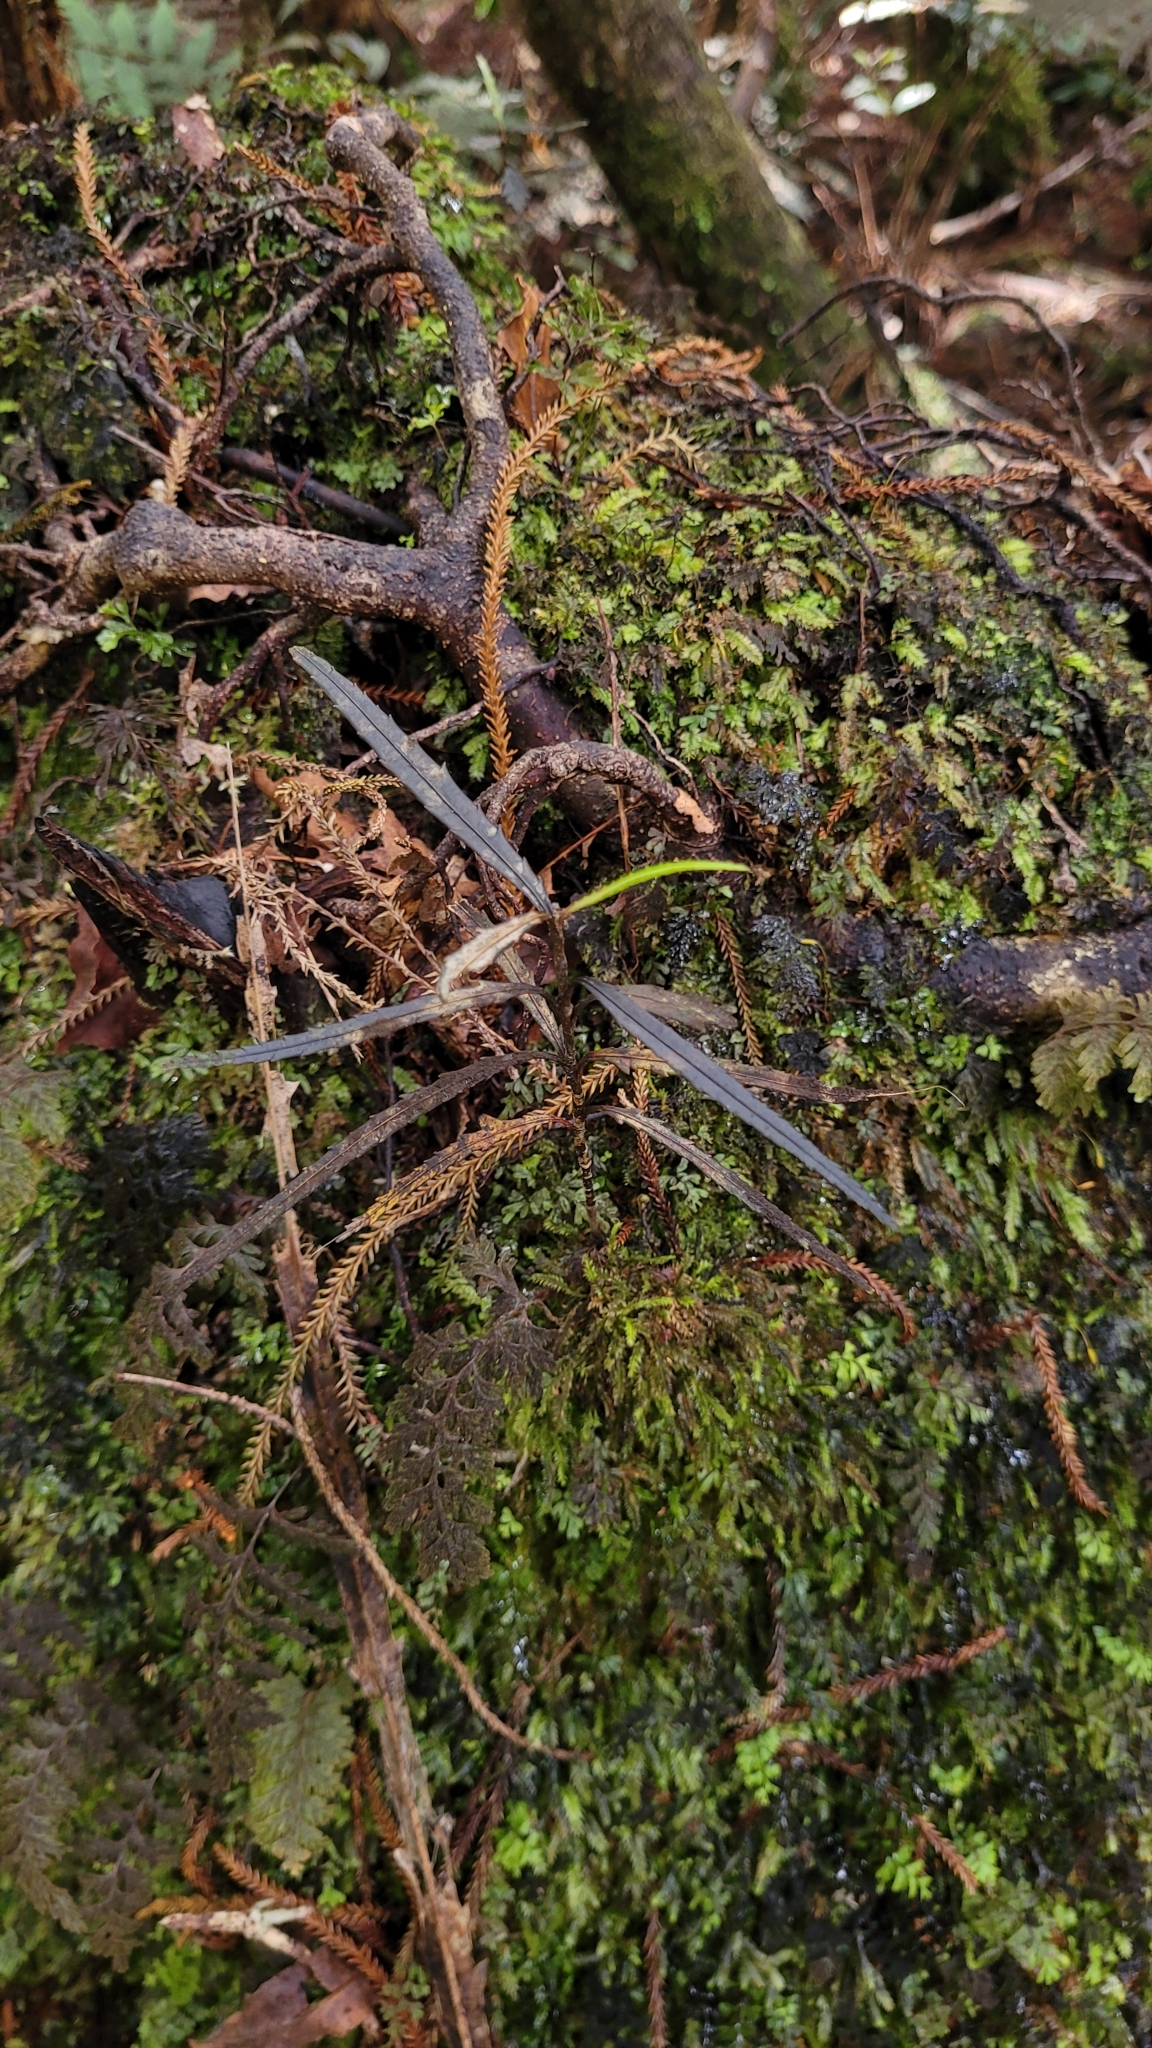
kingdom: Plantae
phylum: Tracheophyta
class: Magnoliopsida
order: Apiales
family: Araliaceae
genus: Pseudopanax
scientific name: Pseudopanax crassifolius
